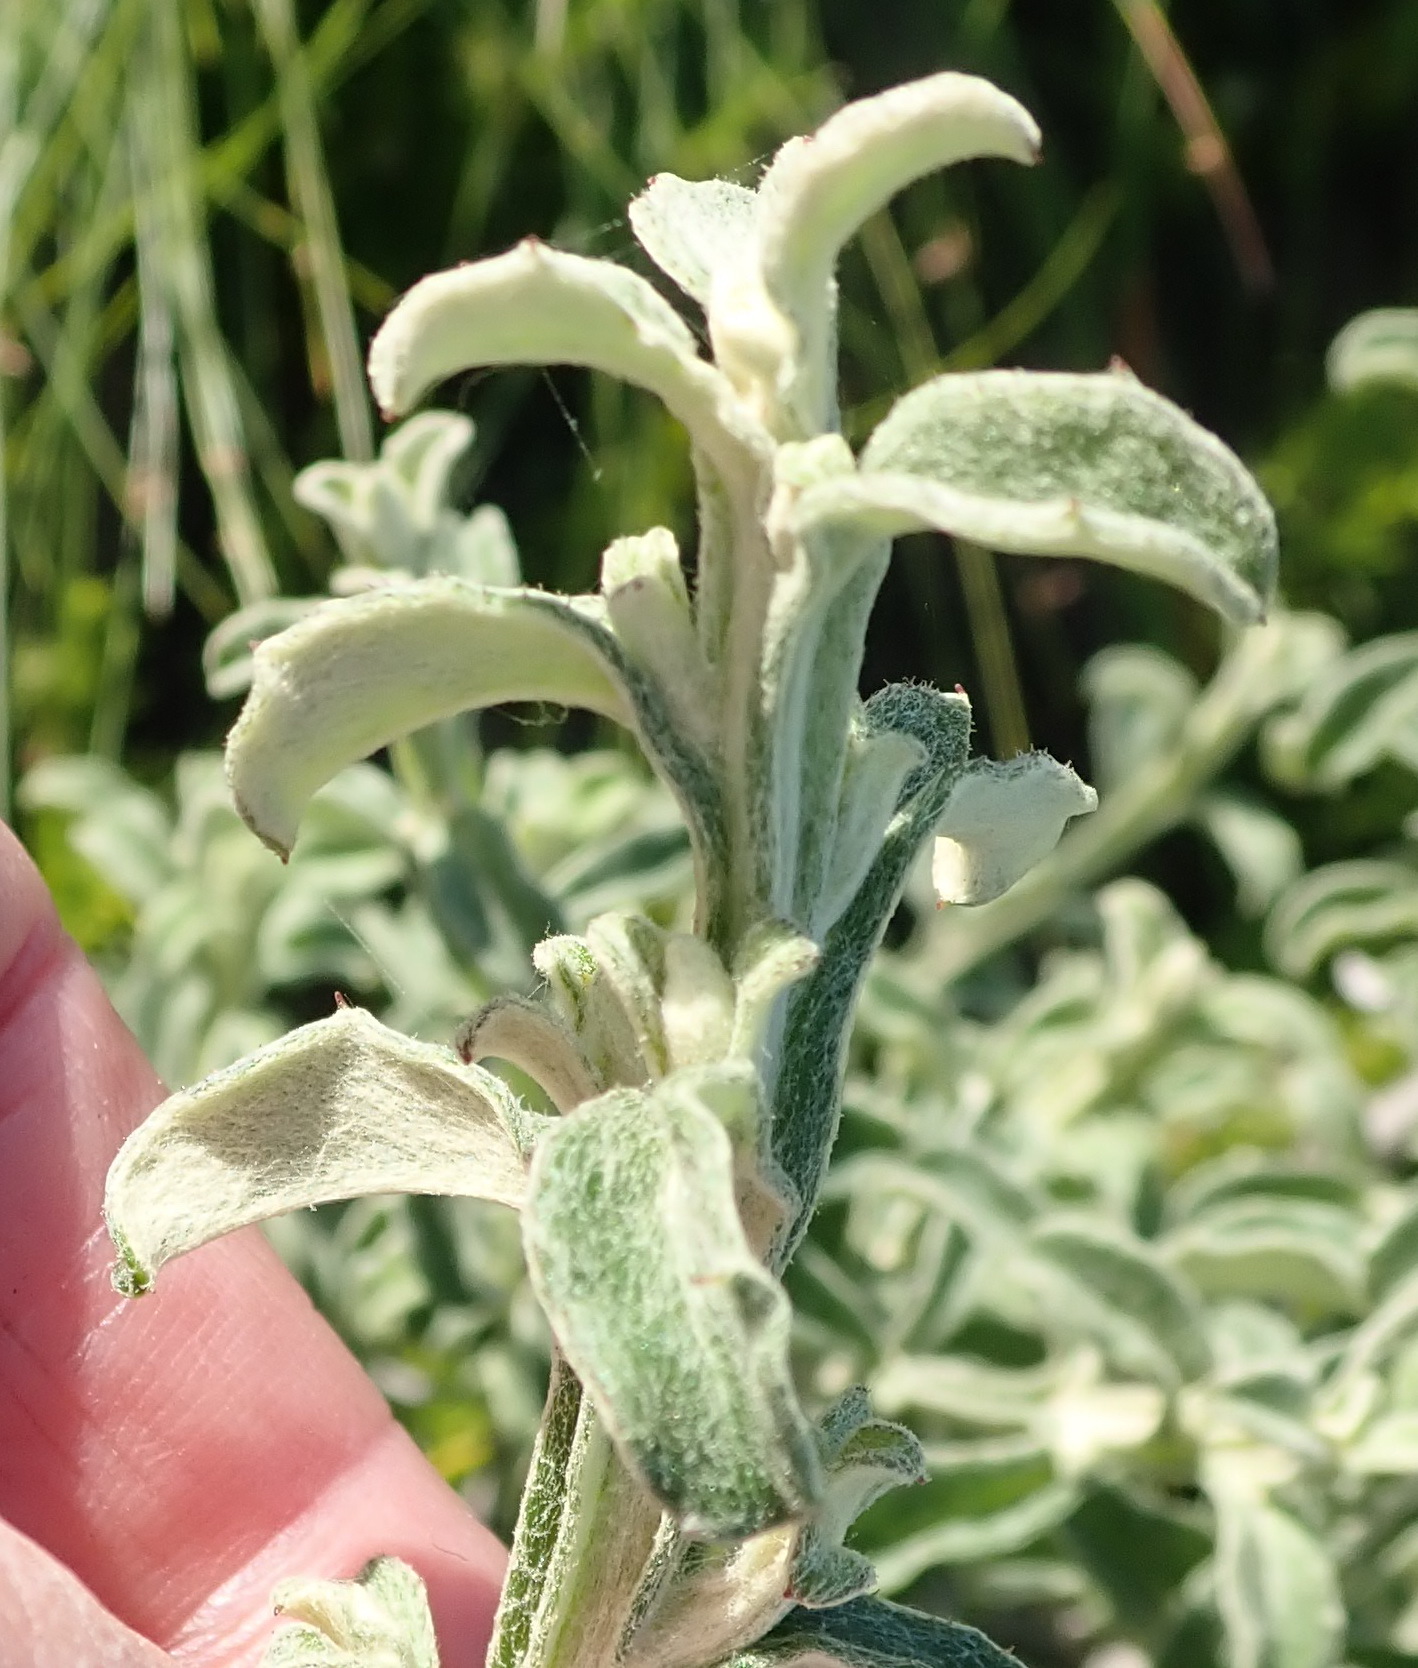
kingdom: Plantae
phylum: Tracheophyta
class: Magnoliopsida
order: Asterales
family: Asteraceae
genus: Printzia
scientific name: Printzia polifolia
